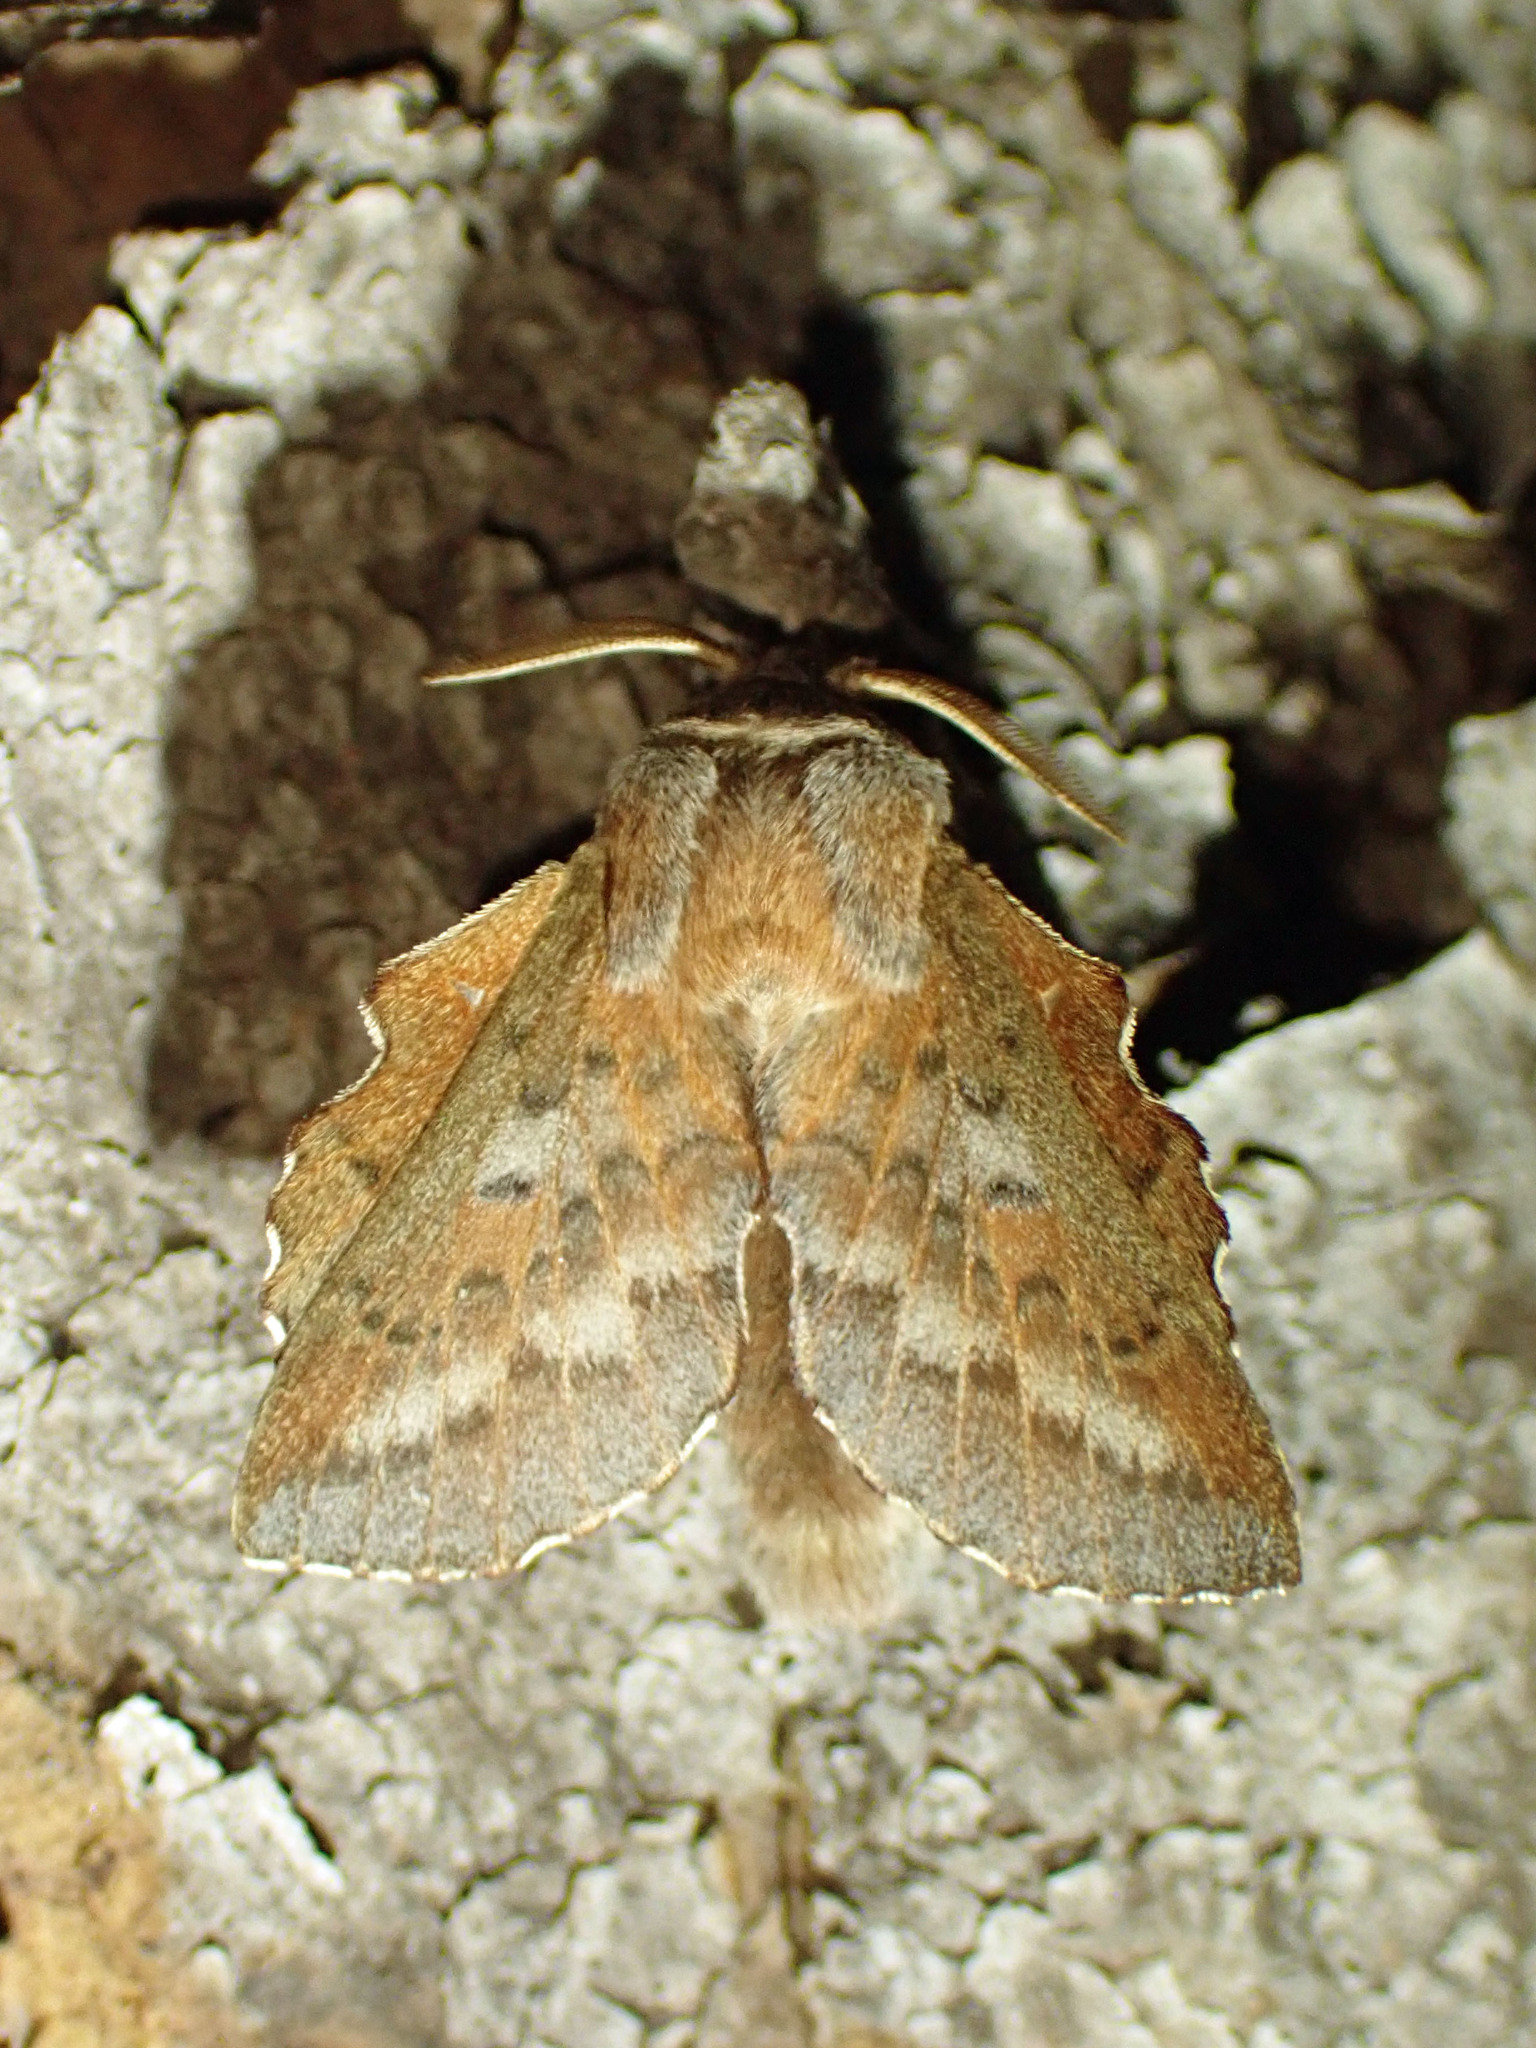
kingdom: Animalia
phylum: Arthropoda
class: Insecta
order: Lepidoptera
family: Lasiocampidae
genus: Phyllodesma
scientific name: Phyllodesma americana
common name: American lappet moth
